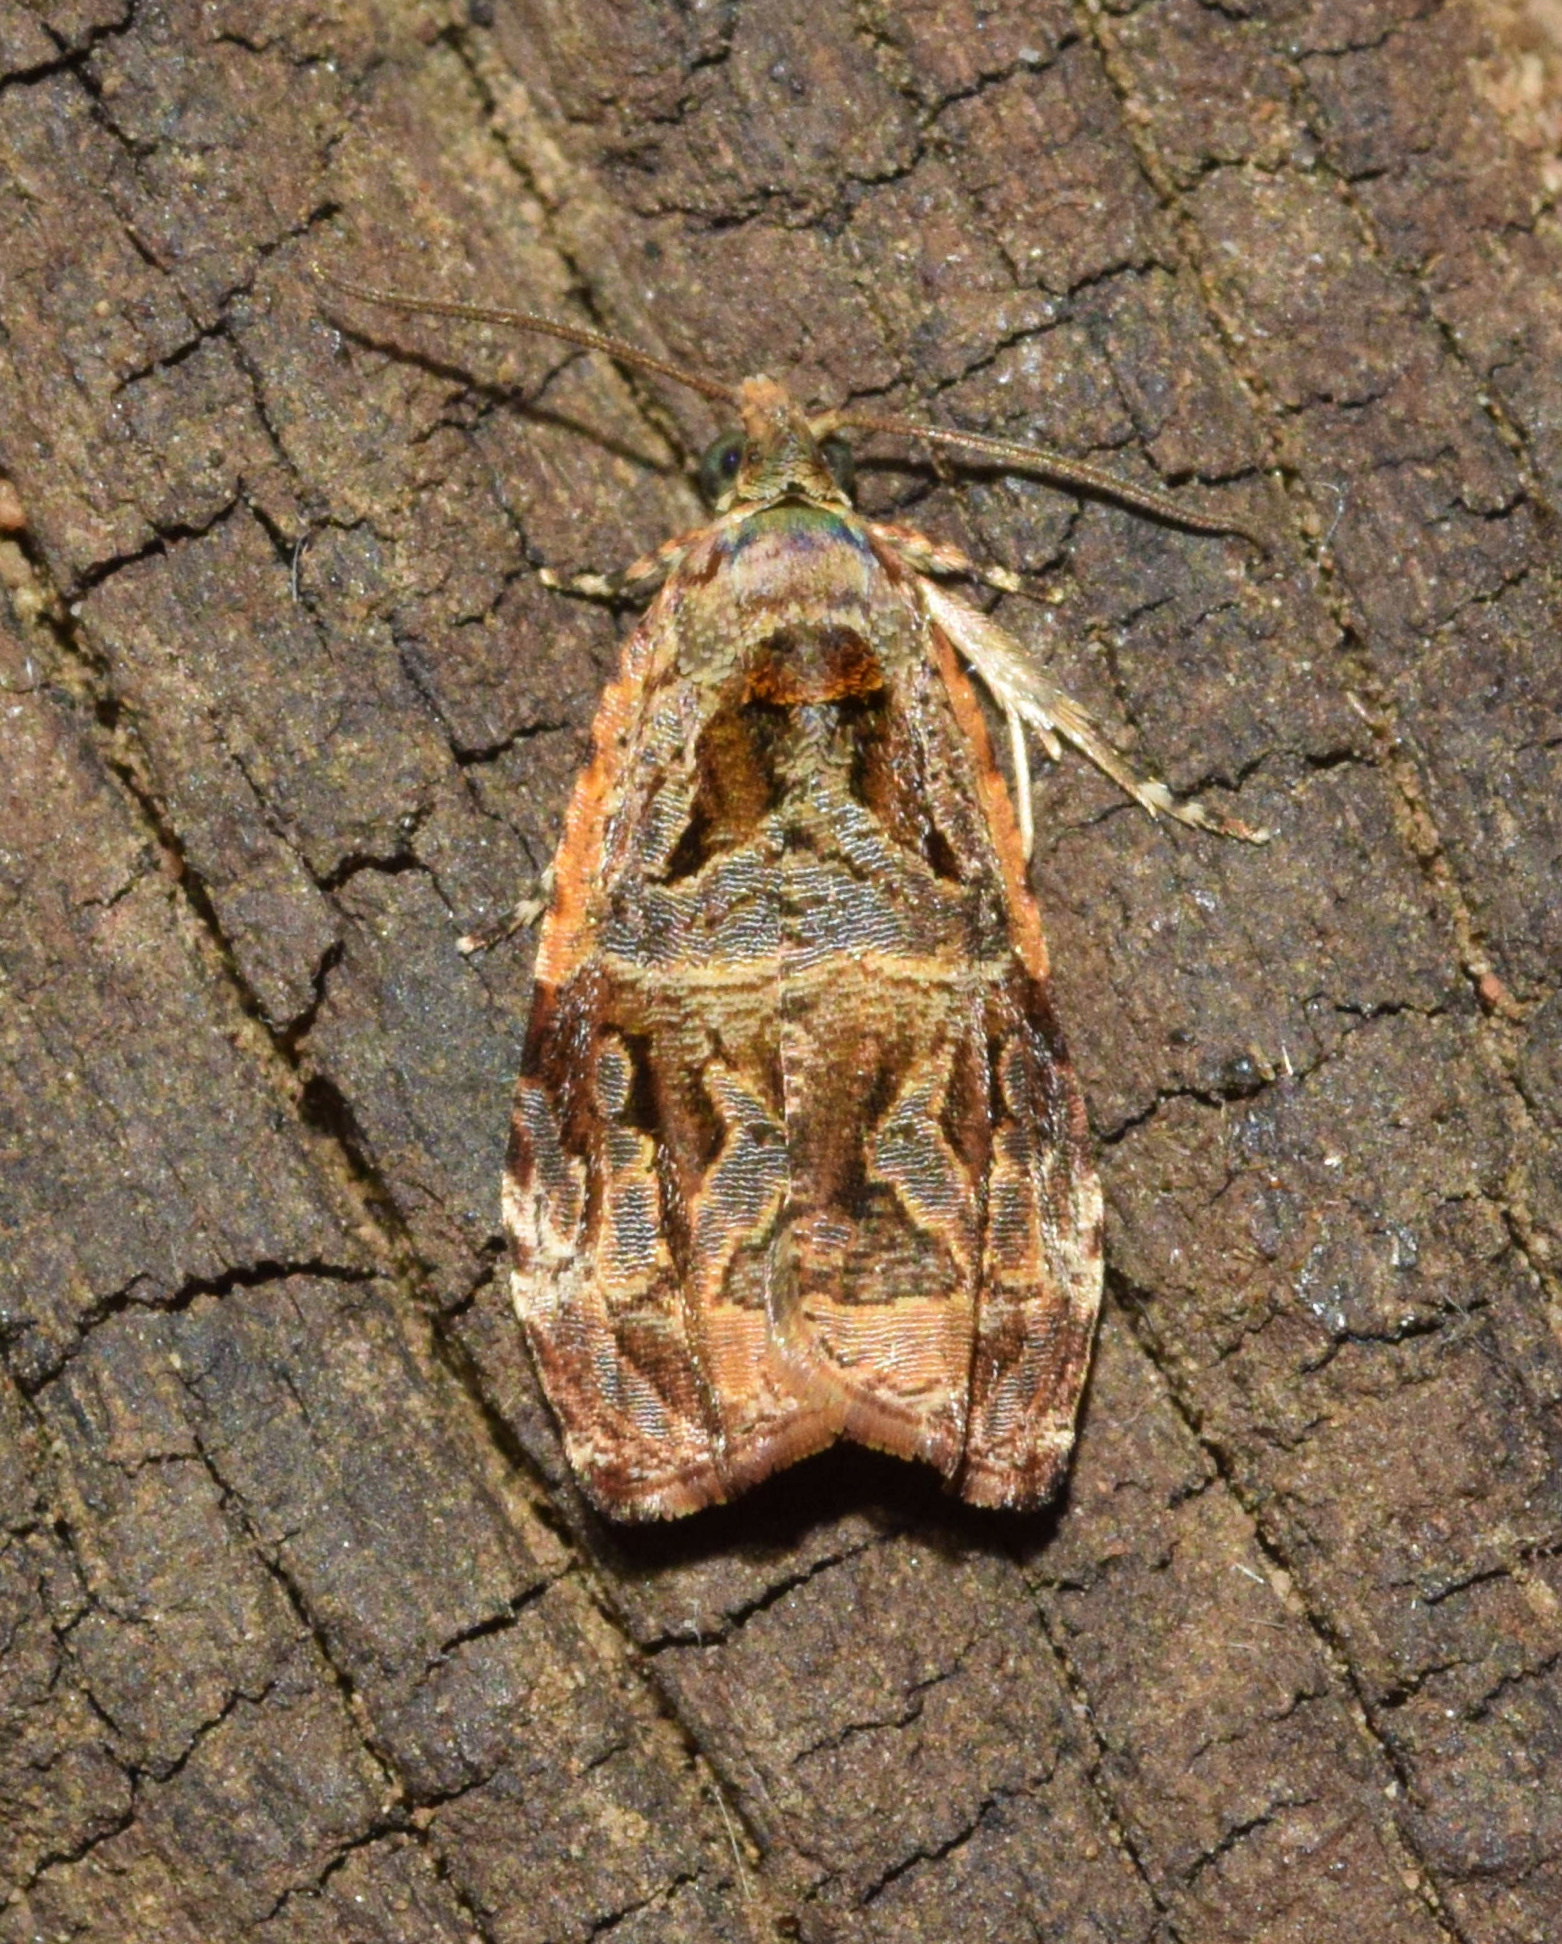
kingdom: Animalia
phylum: Arthropoda
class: Insecta
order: Lepidoptera
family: Tortricidae
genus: Eccopsis
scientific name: Eccopsis incultana
